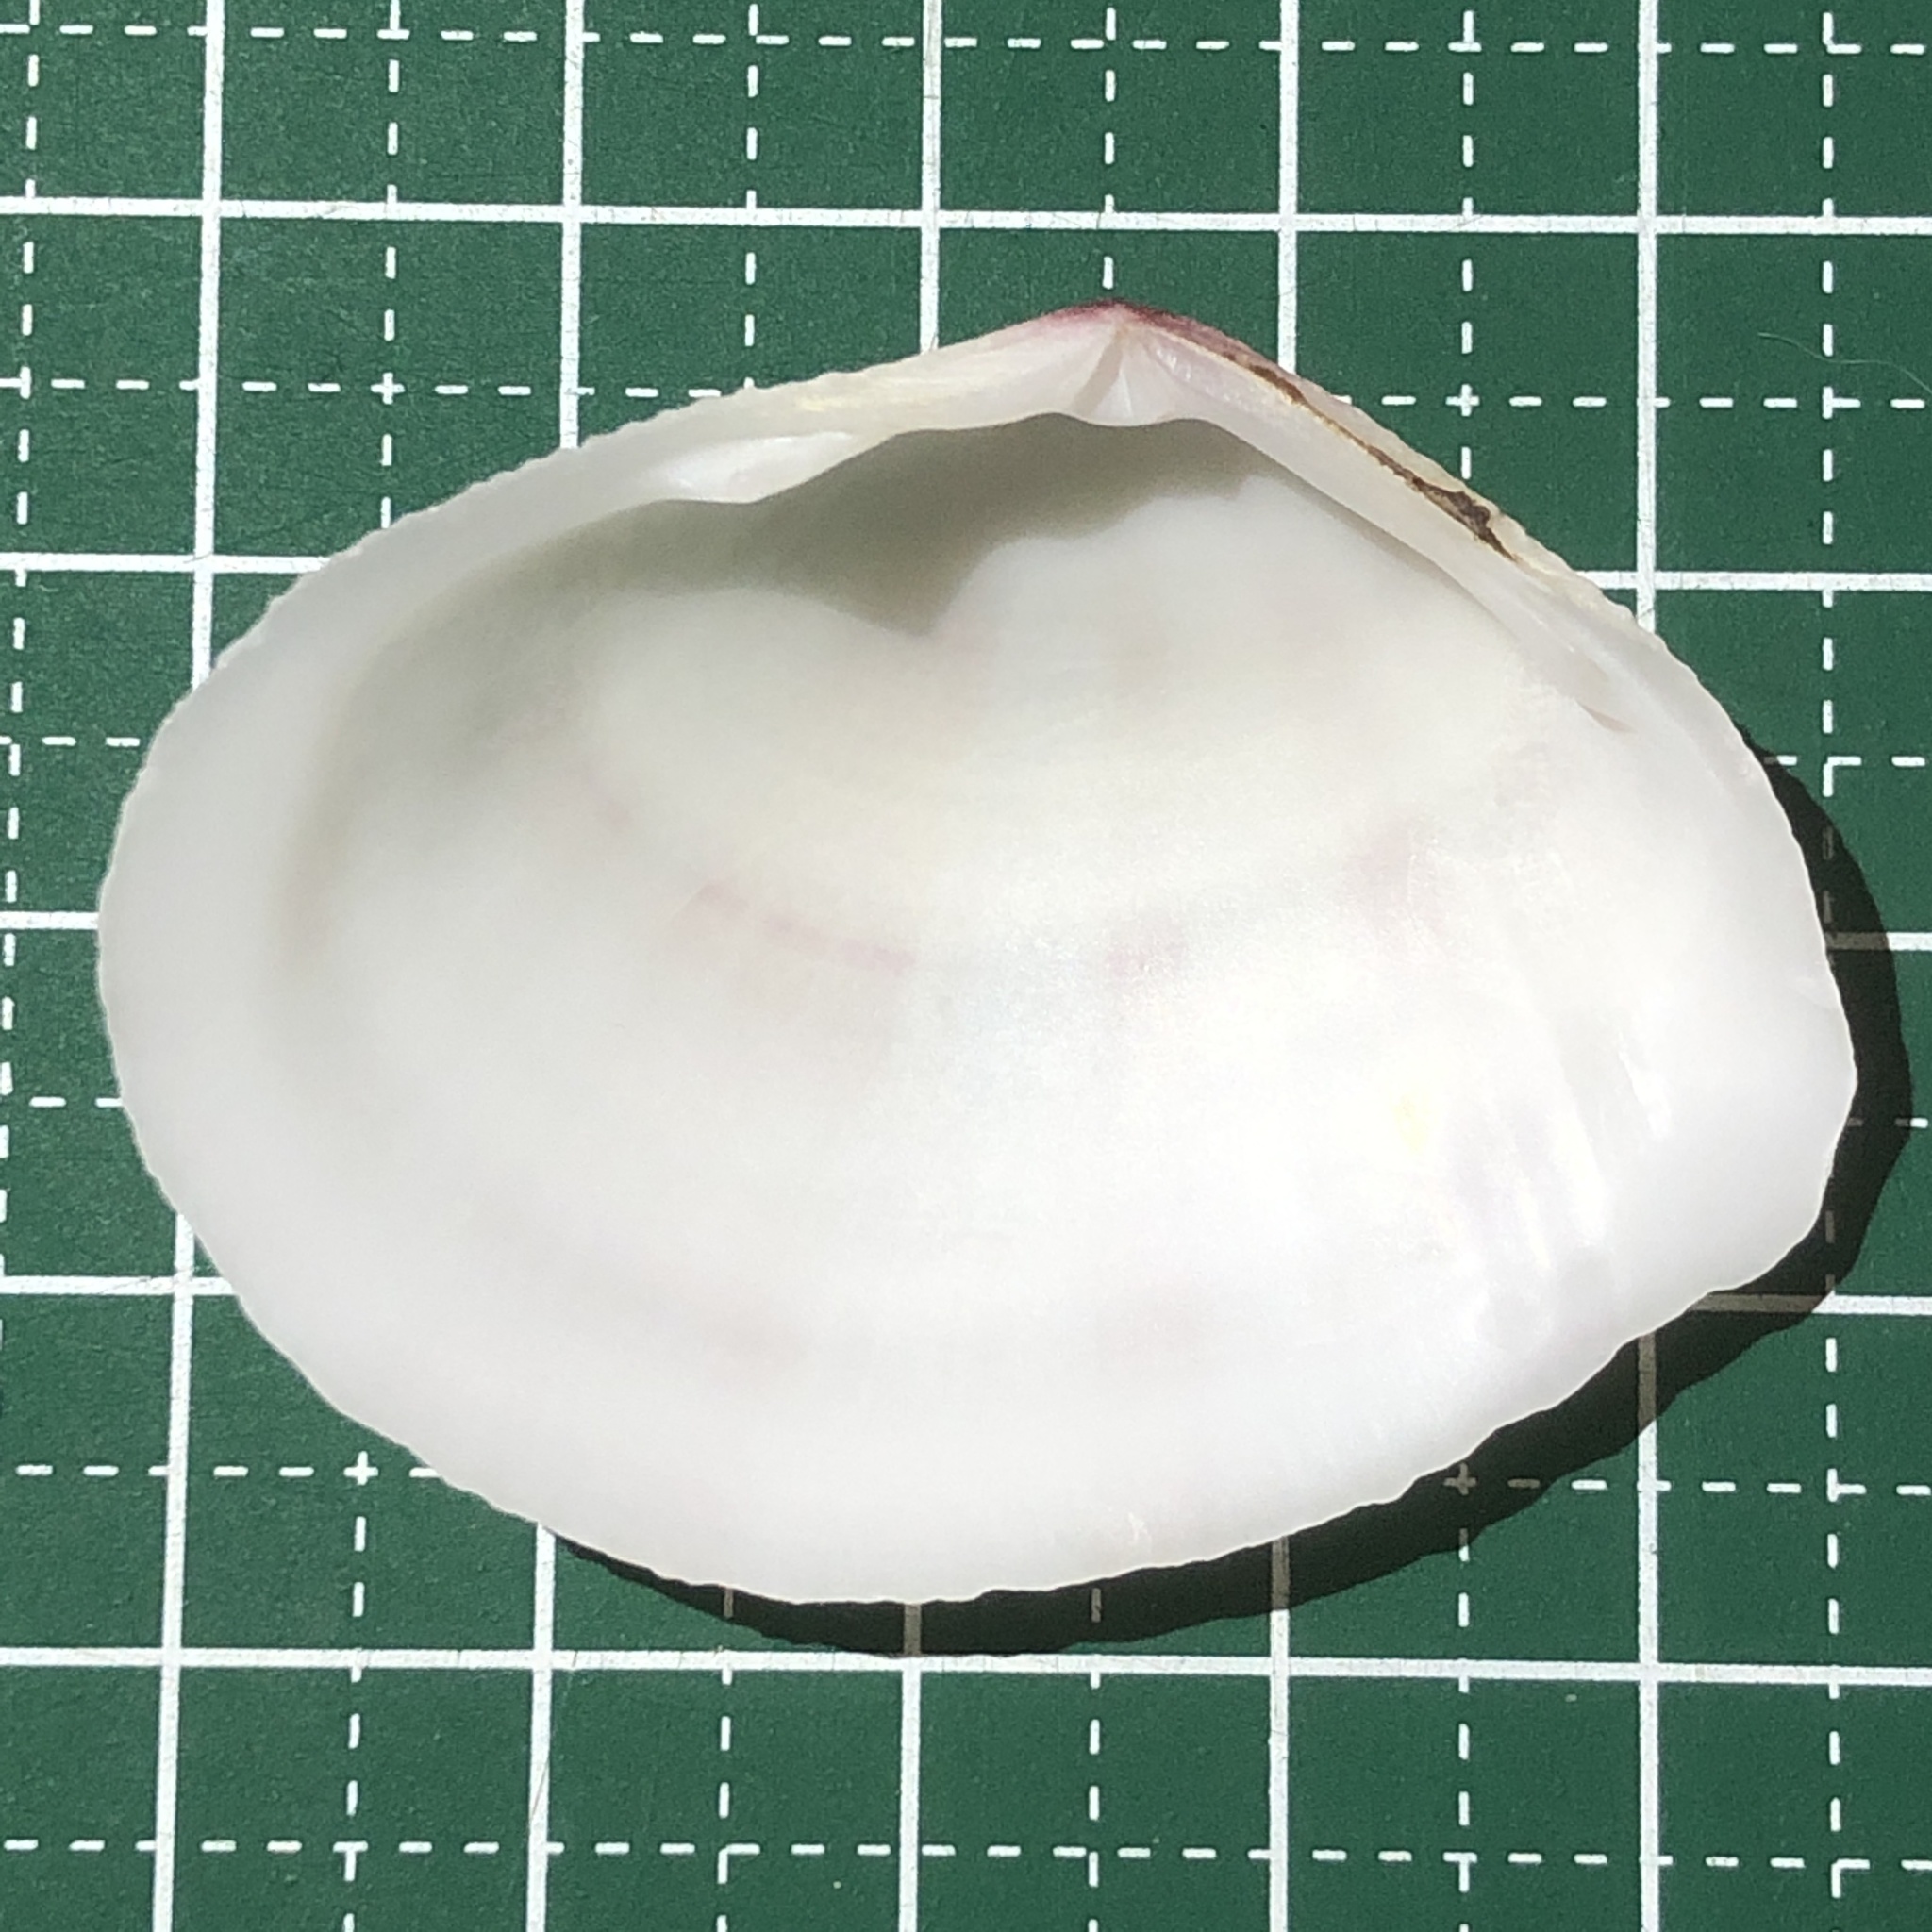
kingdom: Animalia
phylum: Mollusca
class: Bivalvia
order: Cardiida
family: Tellinidae
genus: Scutarcopagia
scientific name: Scutarcopagia linguafelis
